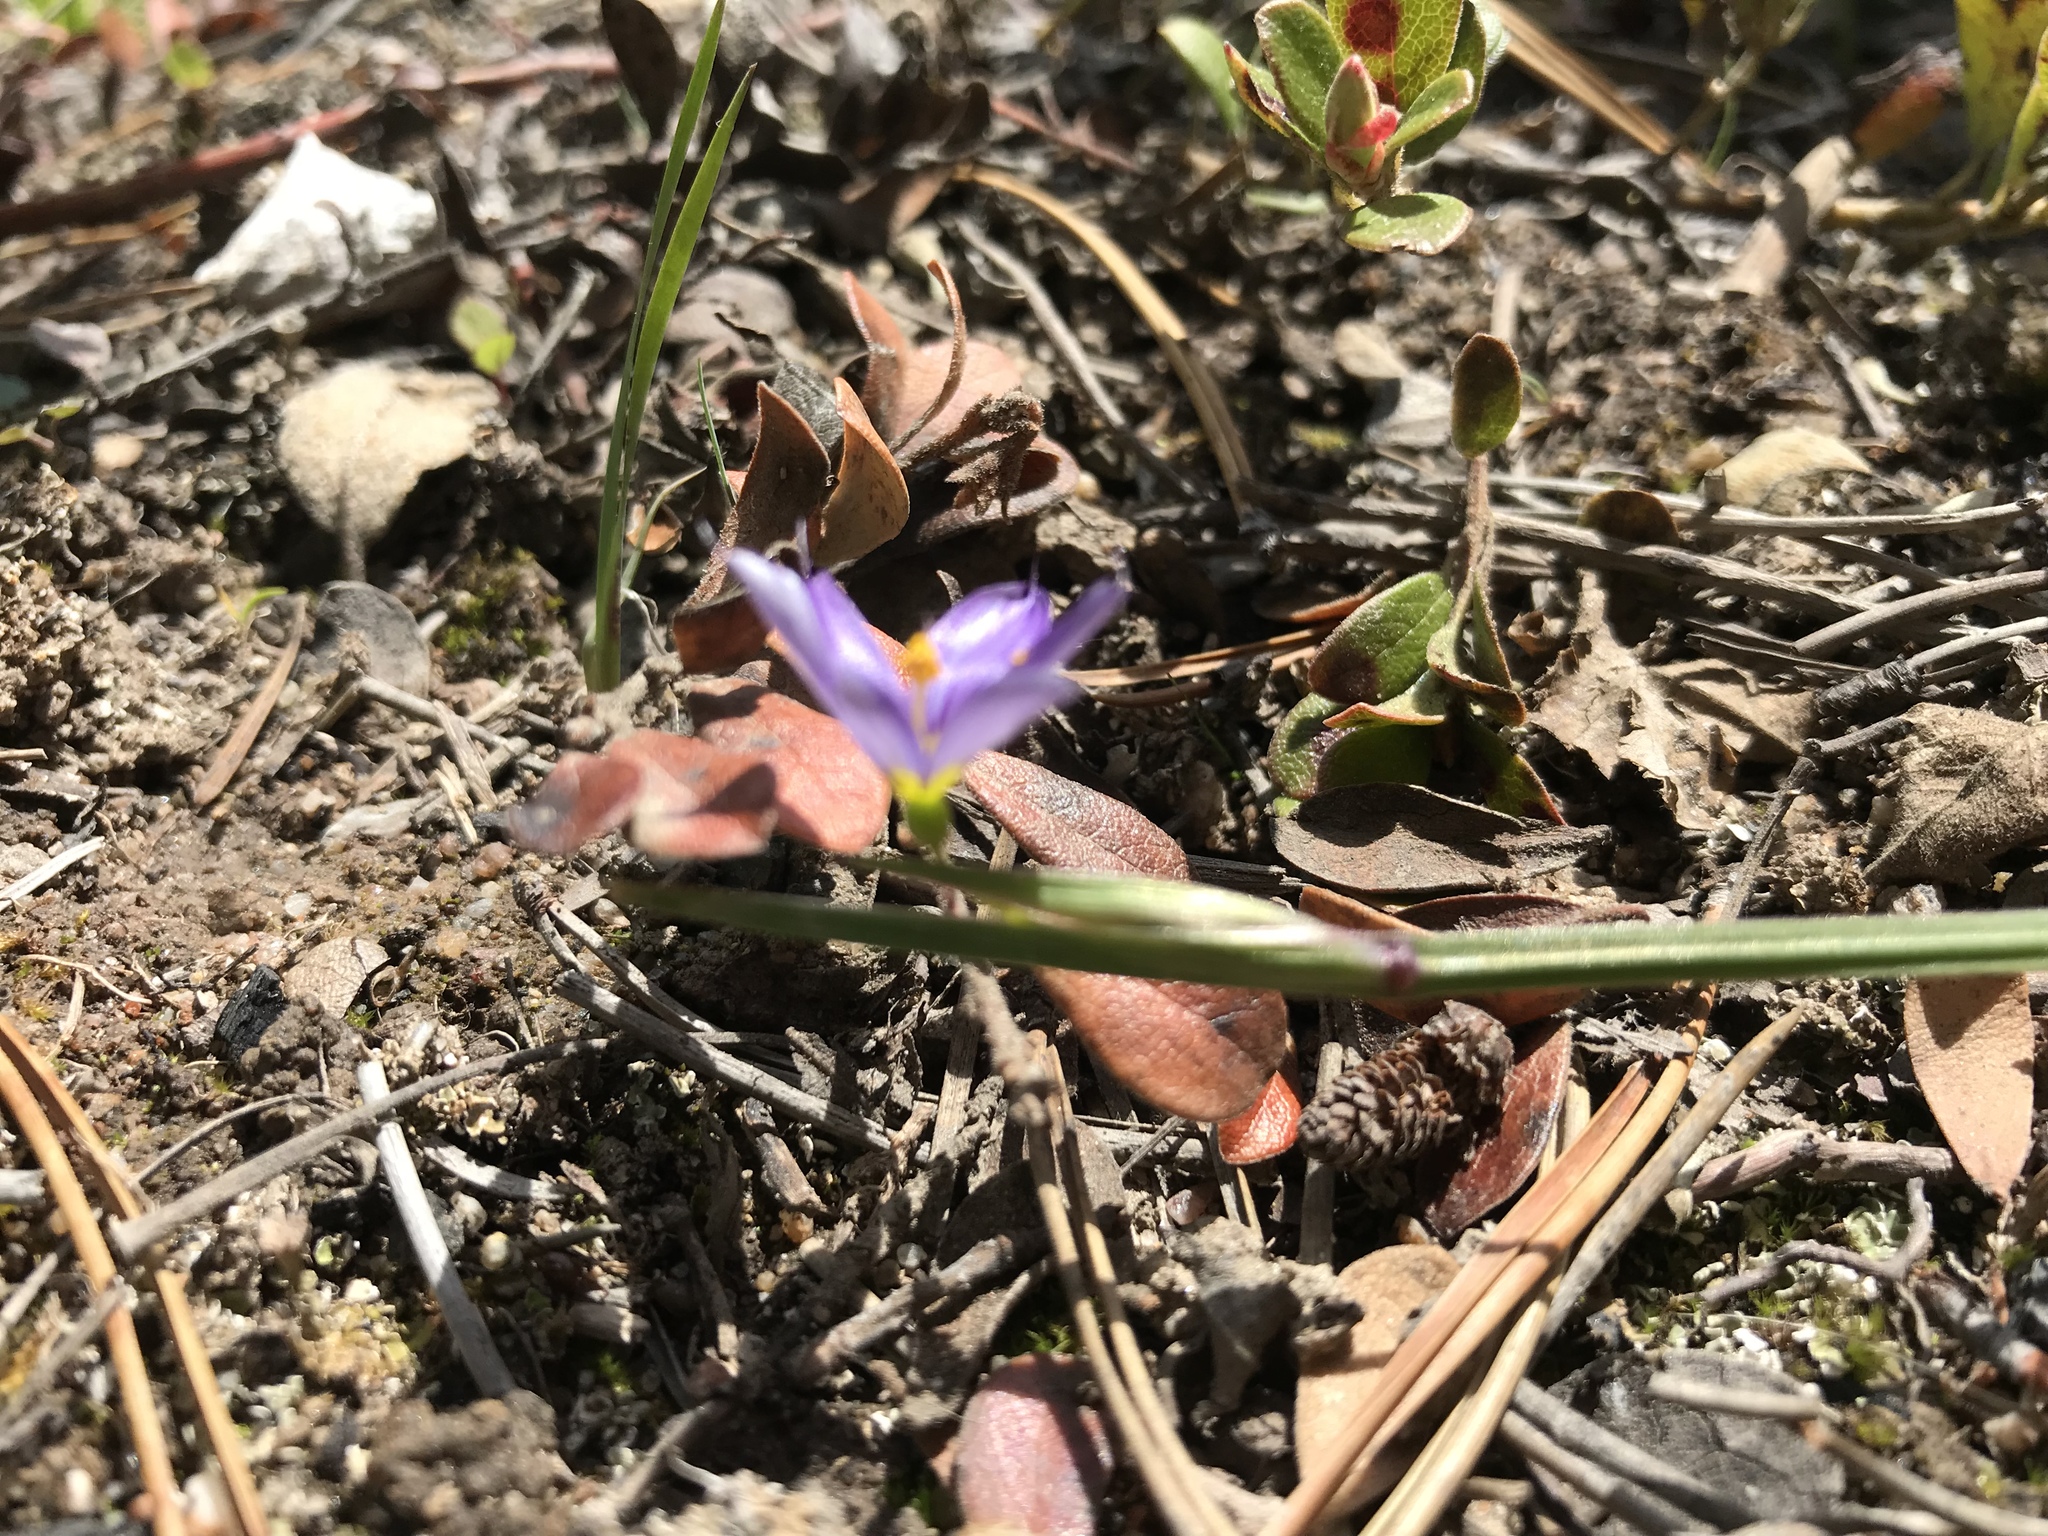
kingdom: Plantae
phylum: Tracheophyta
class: Liliopsida
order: Asparagales
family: Iridaceae
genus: Sisyrinchium
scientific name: Sisyrinchium montanum
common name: American blue-eyed-grass
